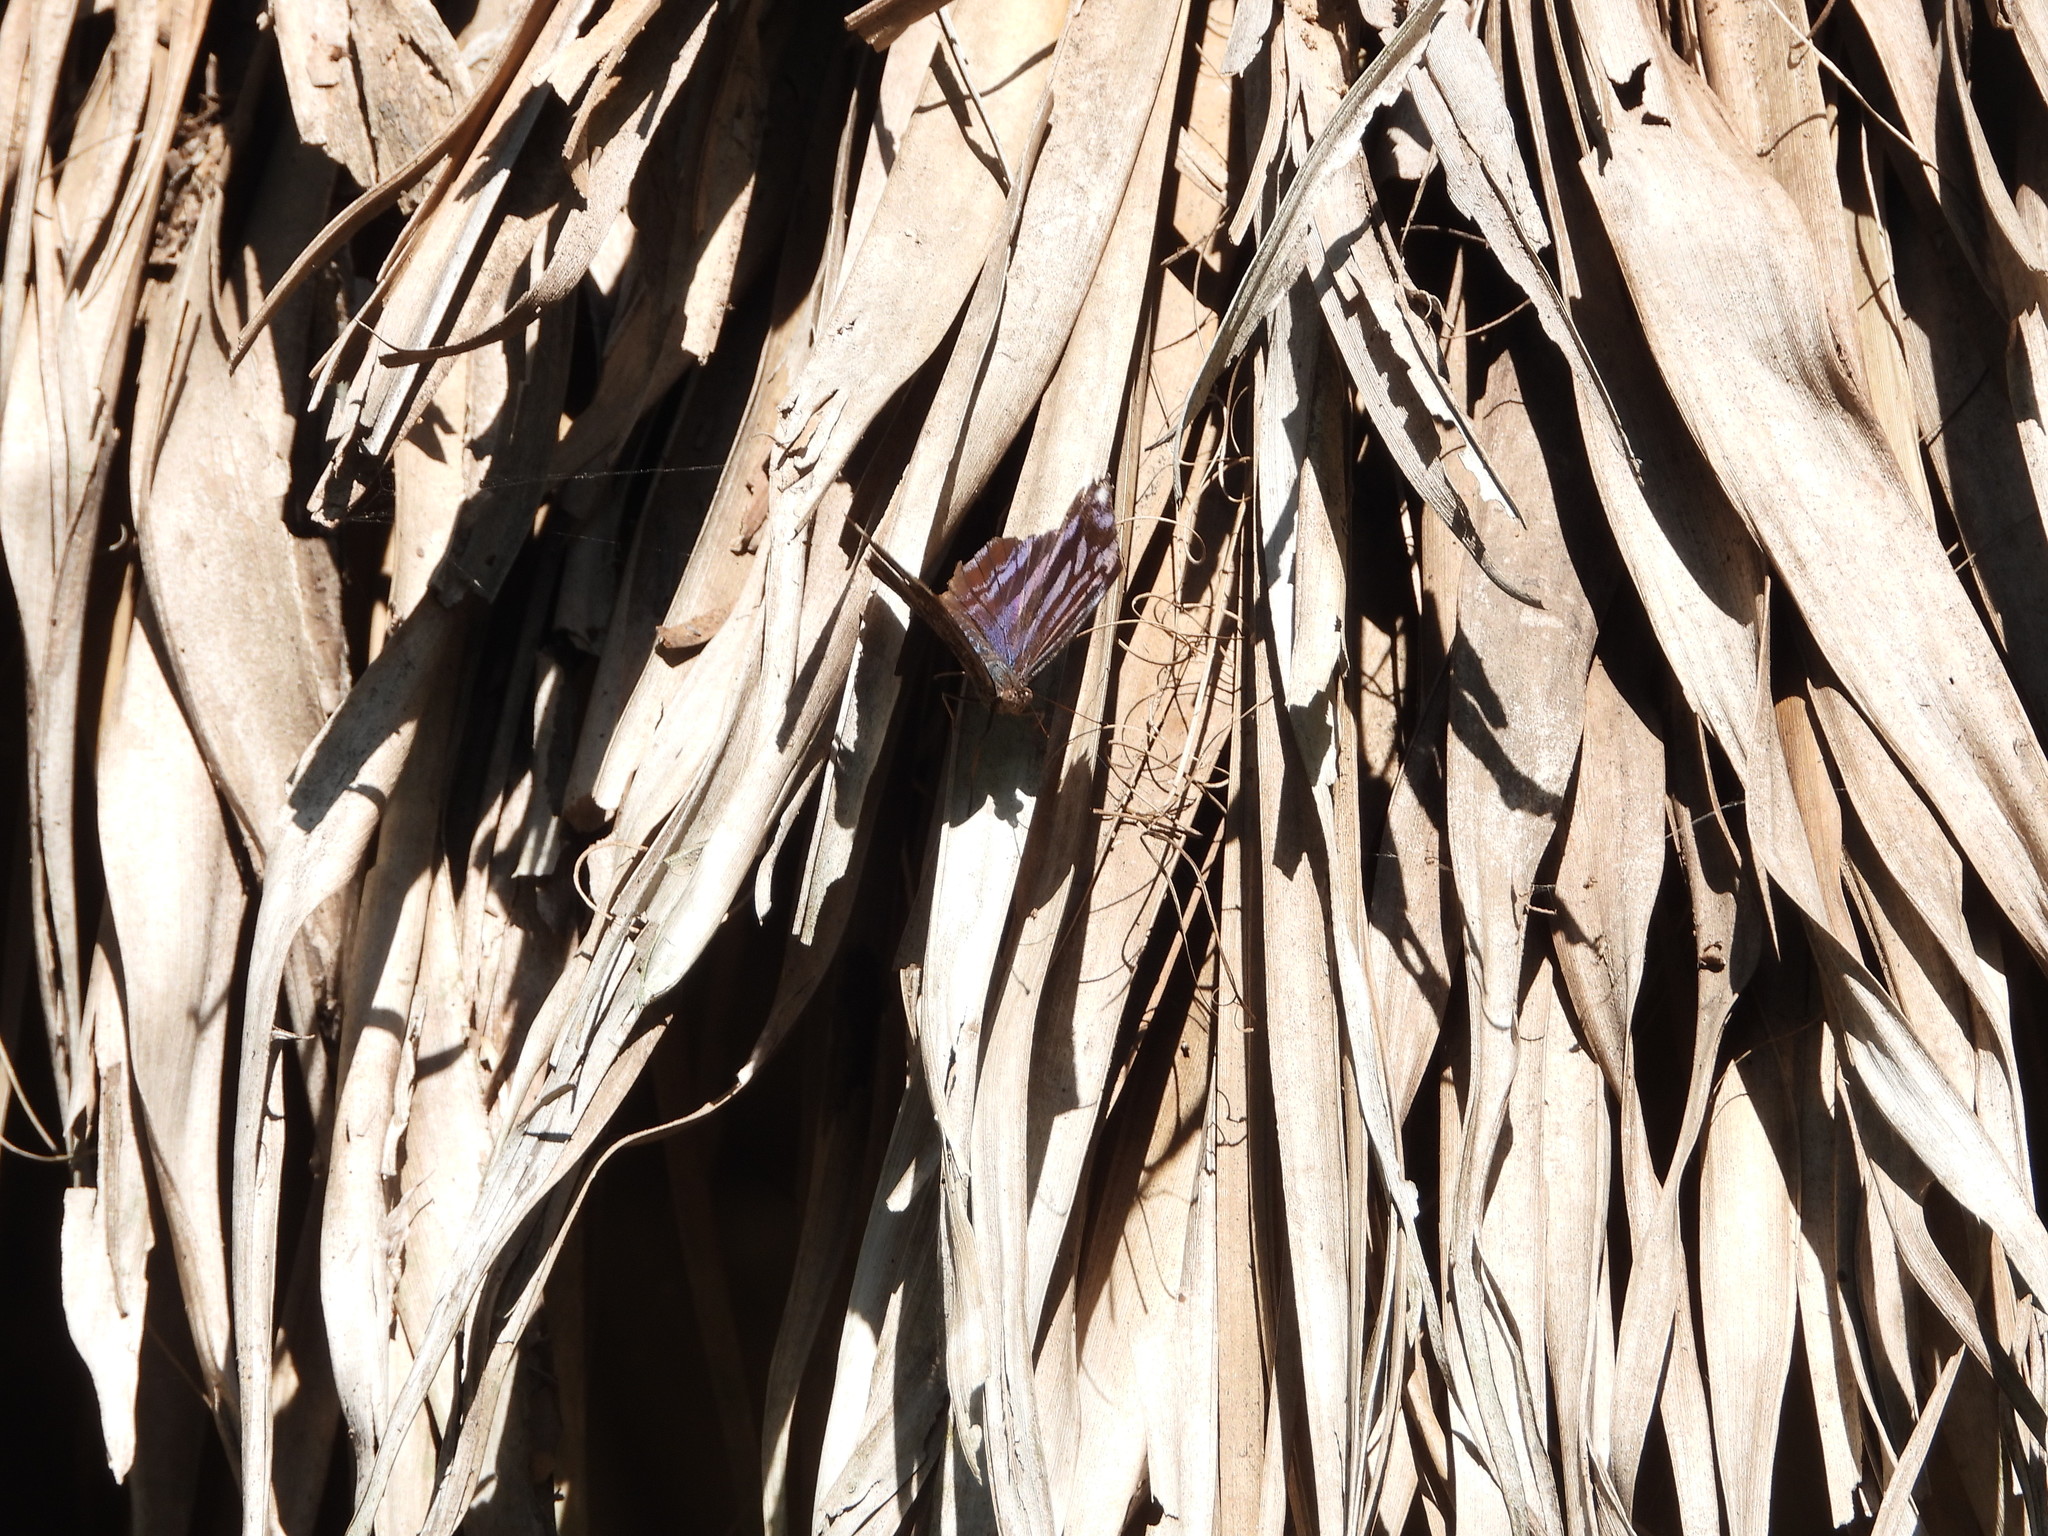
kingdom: Animalia
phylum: Arthropoda
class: Insecta
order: Lepidoptera
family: Nymphalidae
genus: Myscelia
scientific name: Myscelia ethusa
